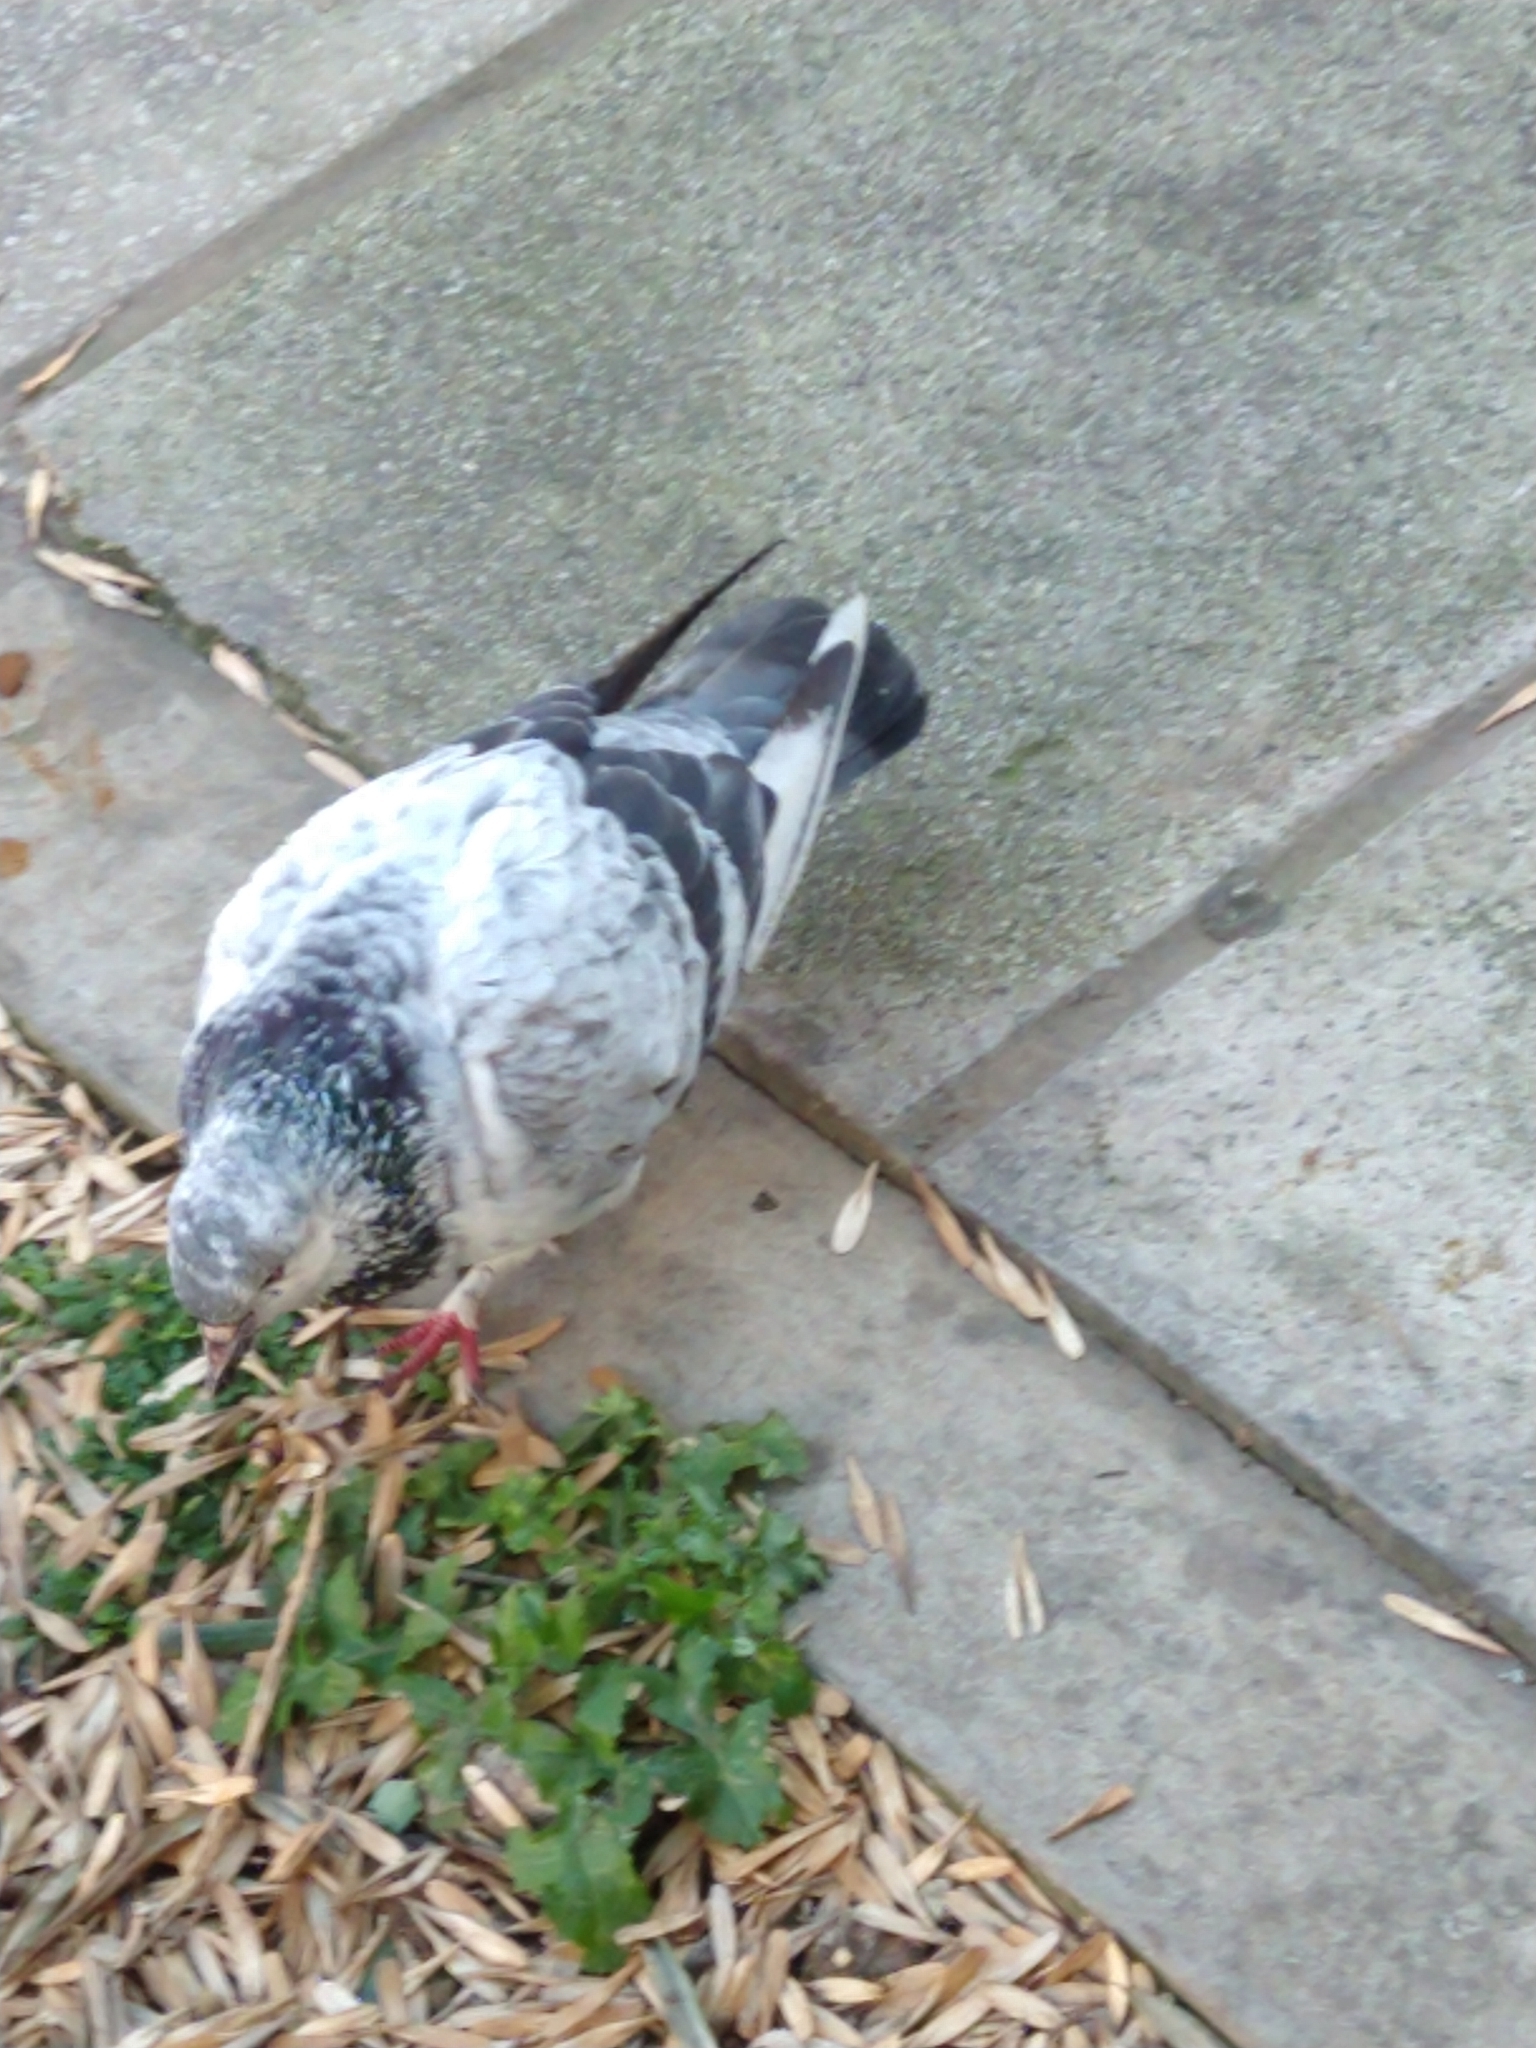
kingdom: Animalia
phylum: Chordata
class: Aves
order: Columbiformes
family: Columbidae
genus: Columba
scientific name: Columba livia
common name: Rock pigeon
